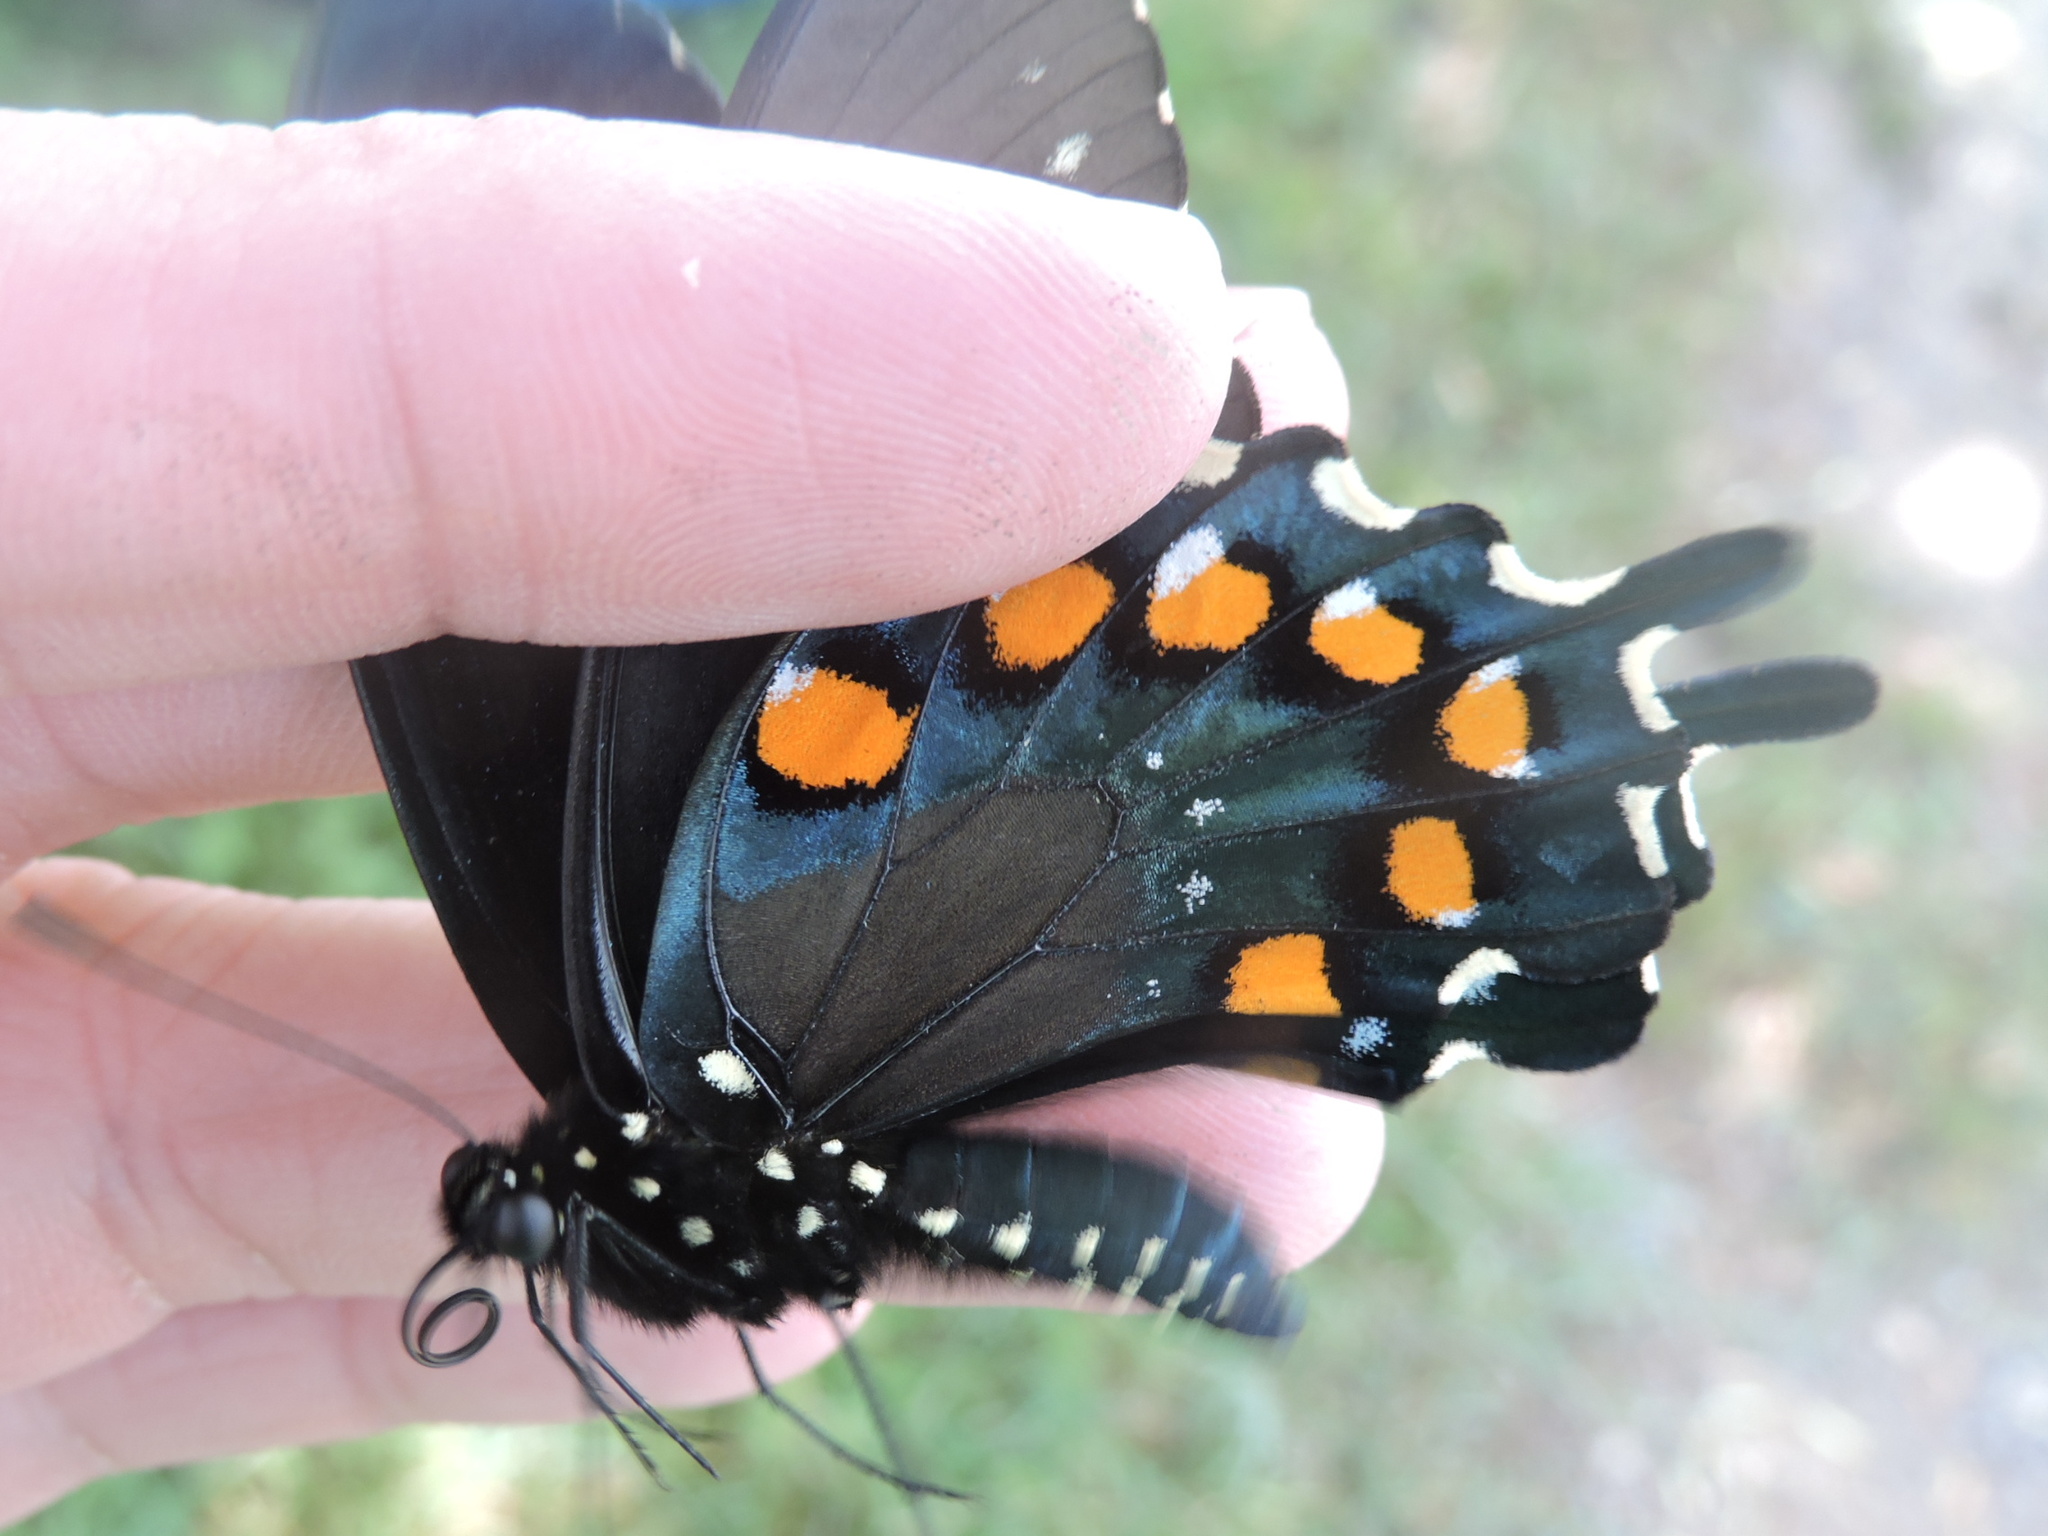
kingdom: Animalia
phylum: Arthropoda
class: Insecta
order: Lepidoptera
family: Papilionidae
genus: Battus
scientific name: Battus philenor
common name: Pipevine swallowtail
